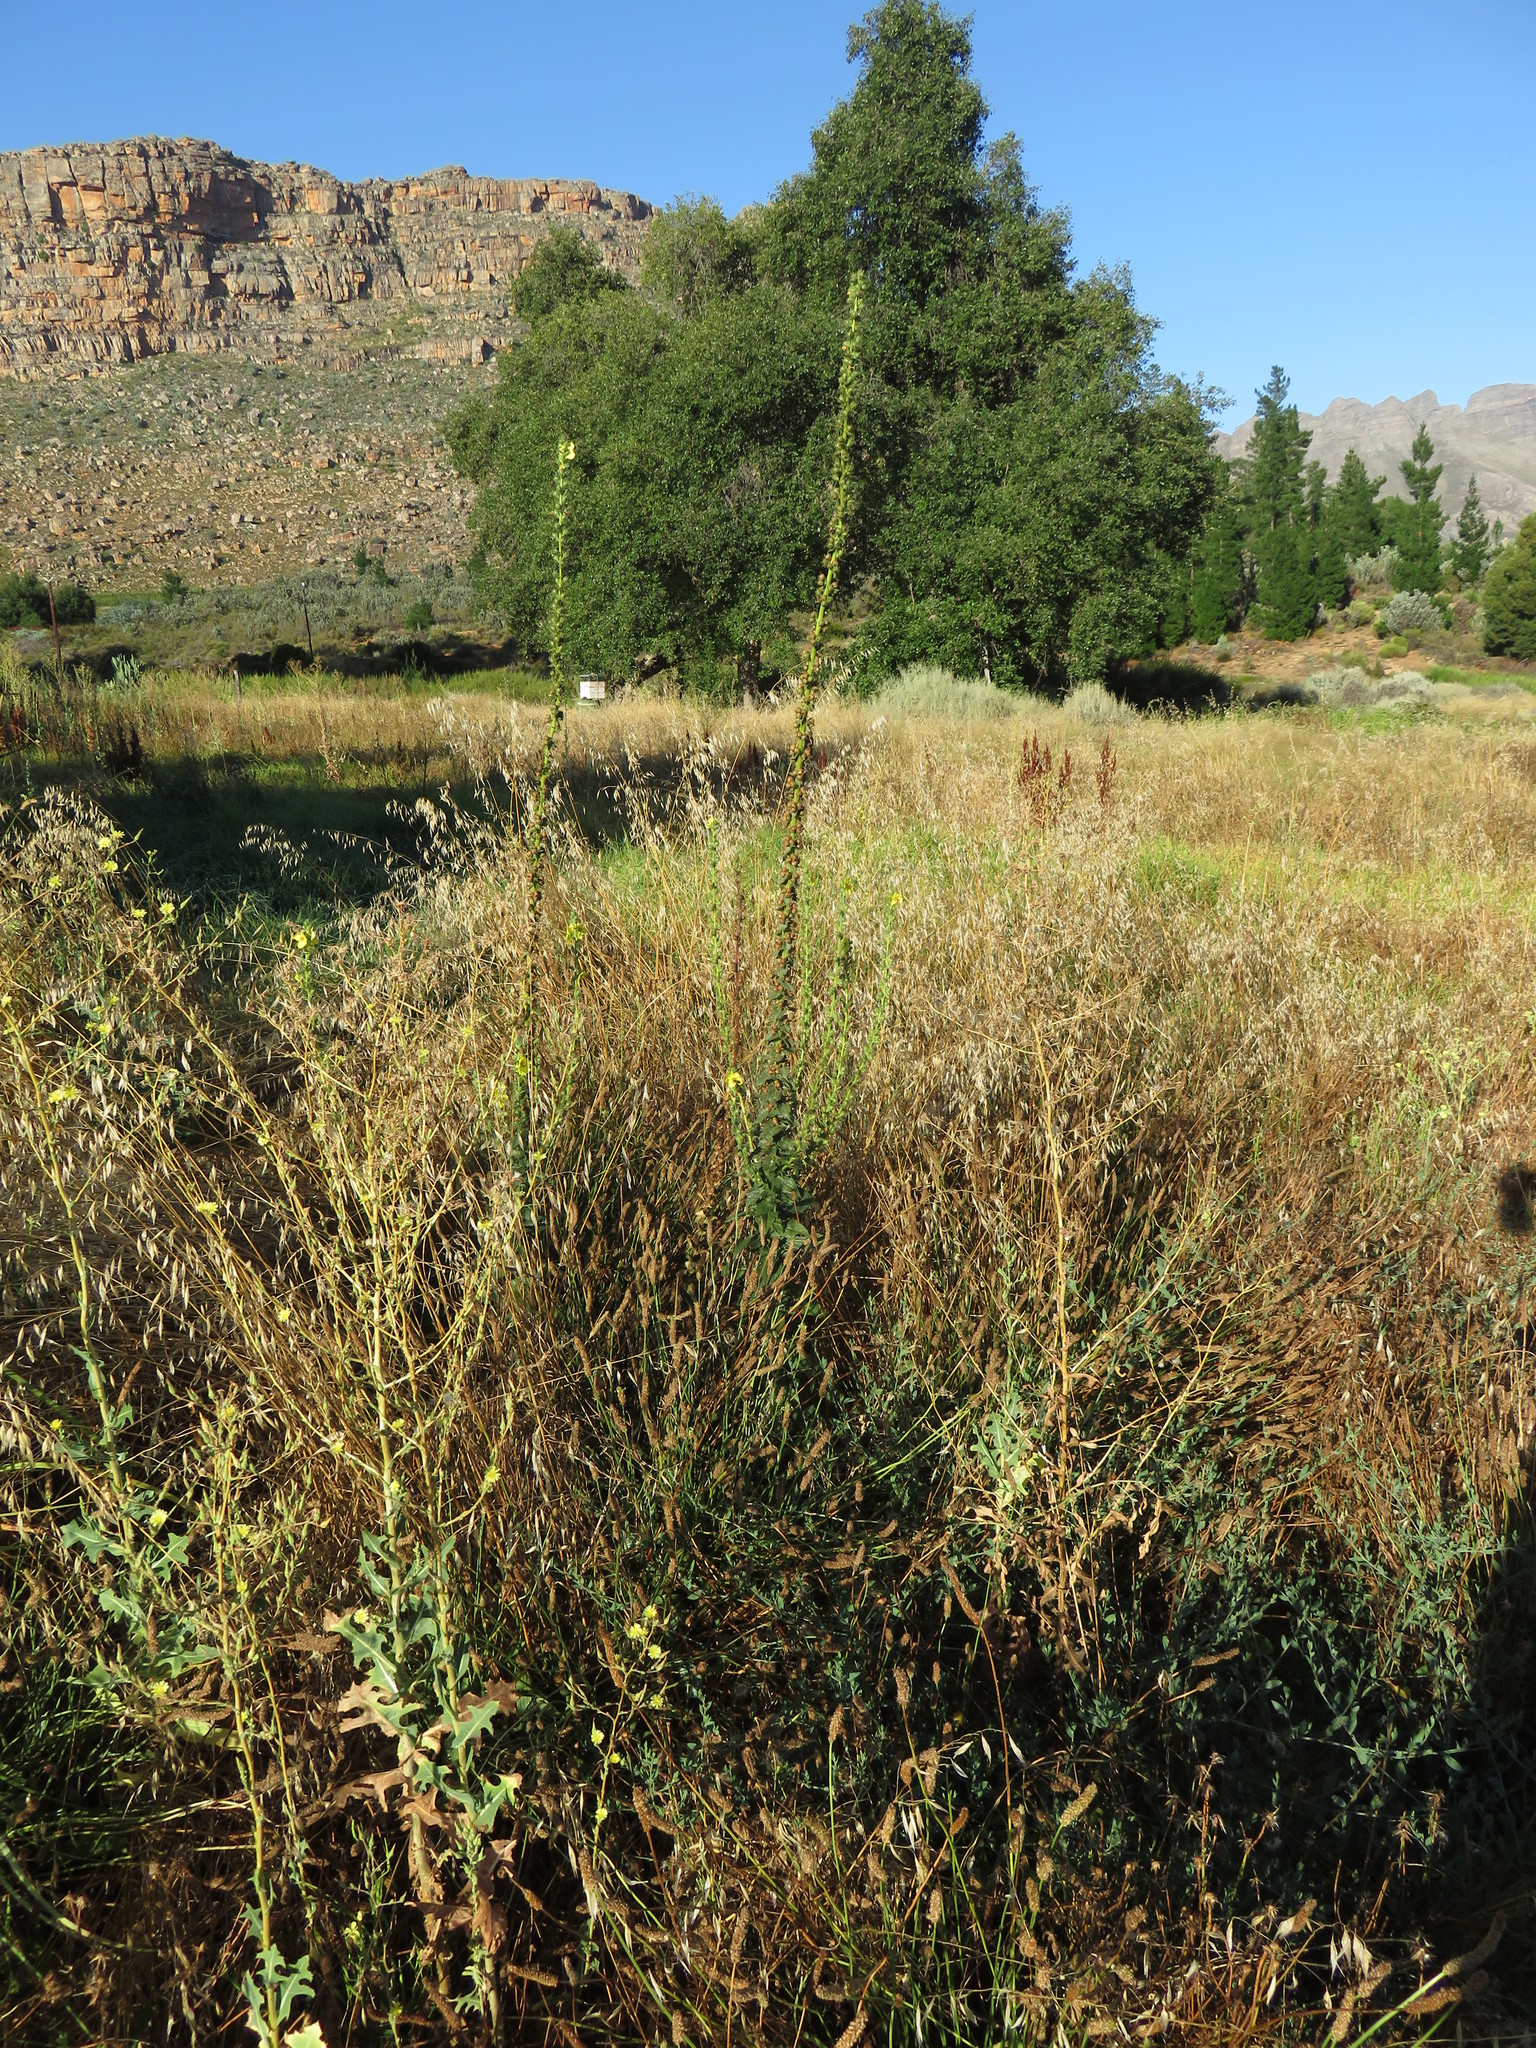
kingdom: Plantae
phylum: Tracheophyta
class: Magnoliopsida
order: Lamiales
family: Scrophulariaceae
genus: Verbascum
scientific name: Verbascum virgatum
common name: Twiggy mullein
